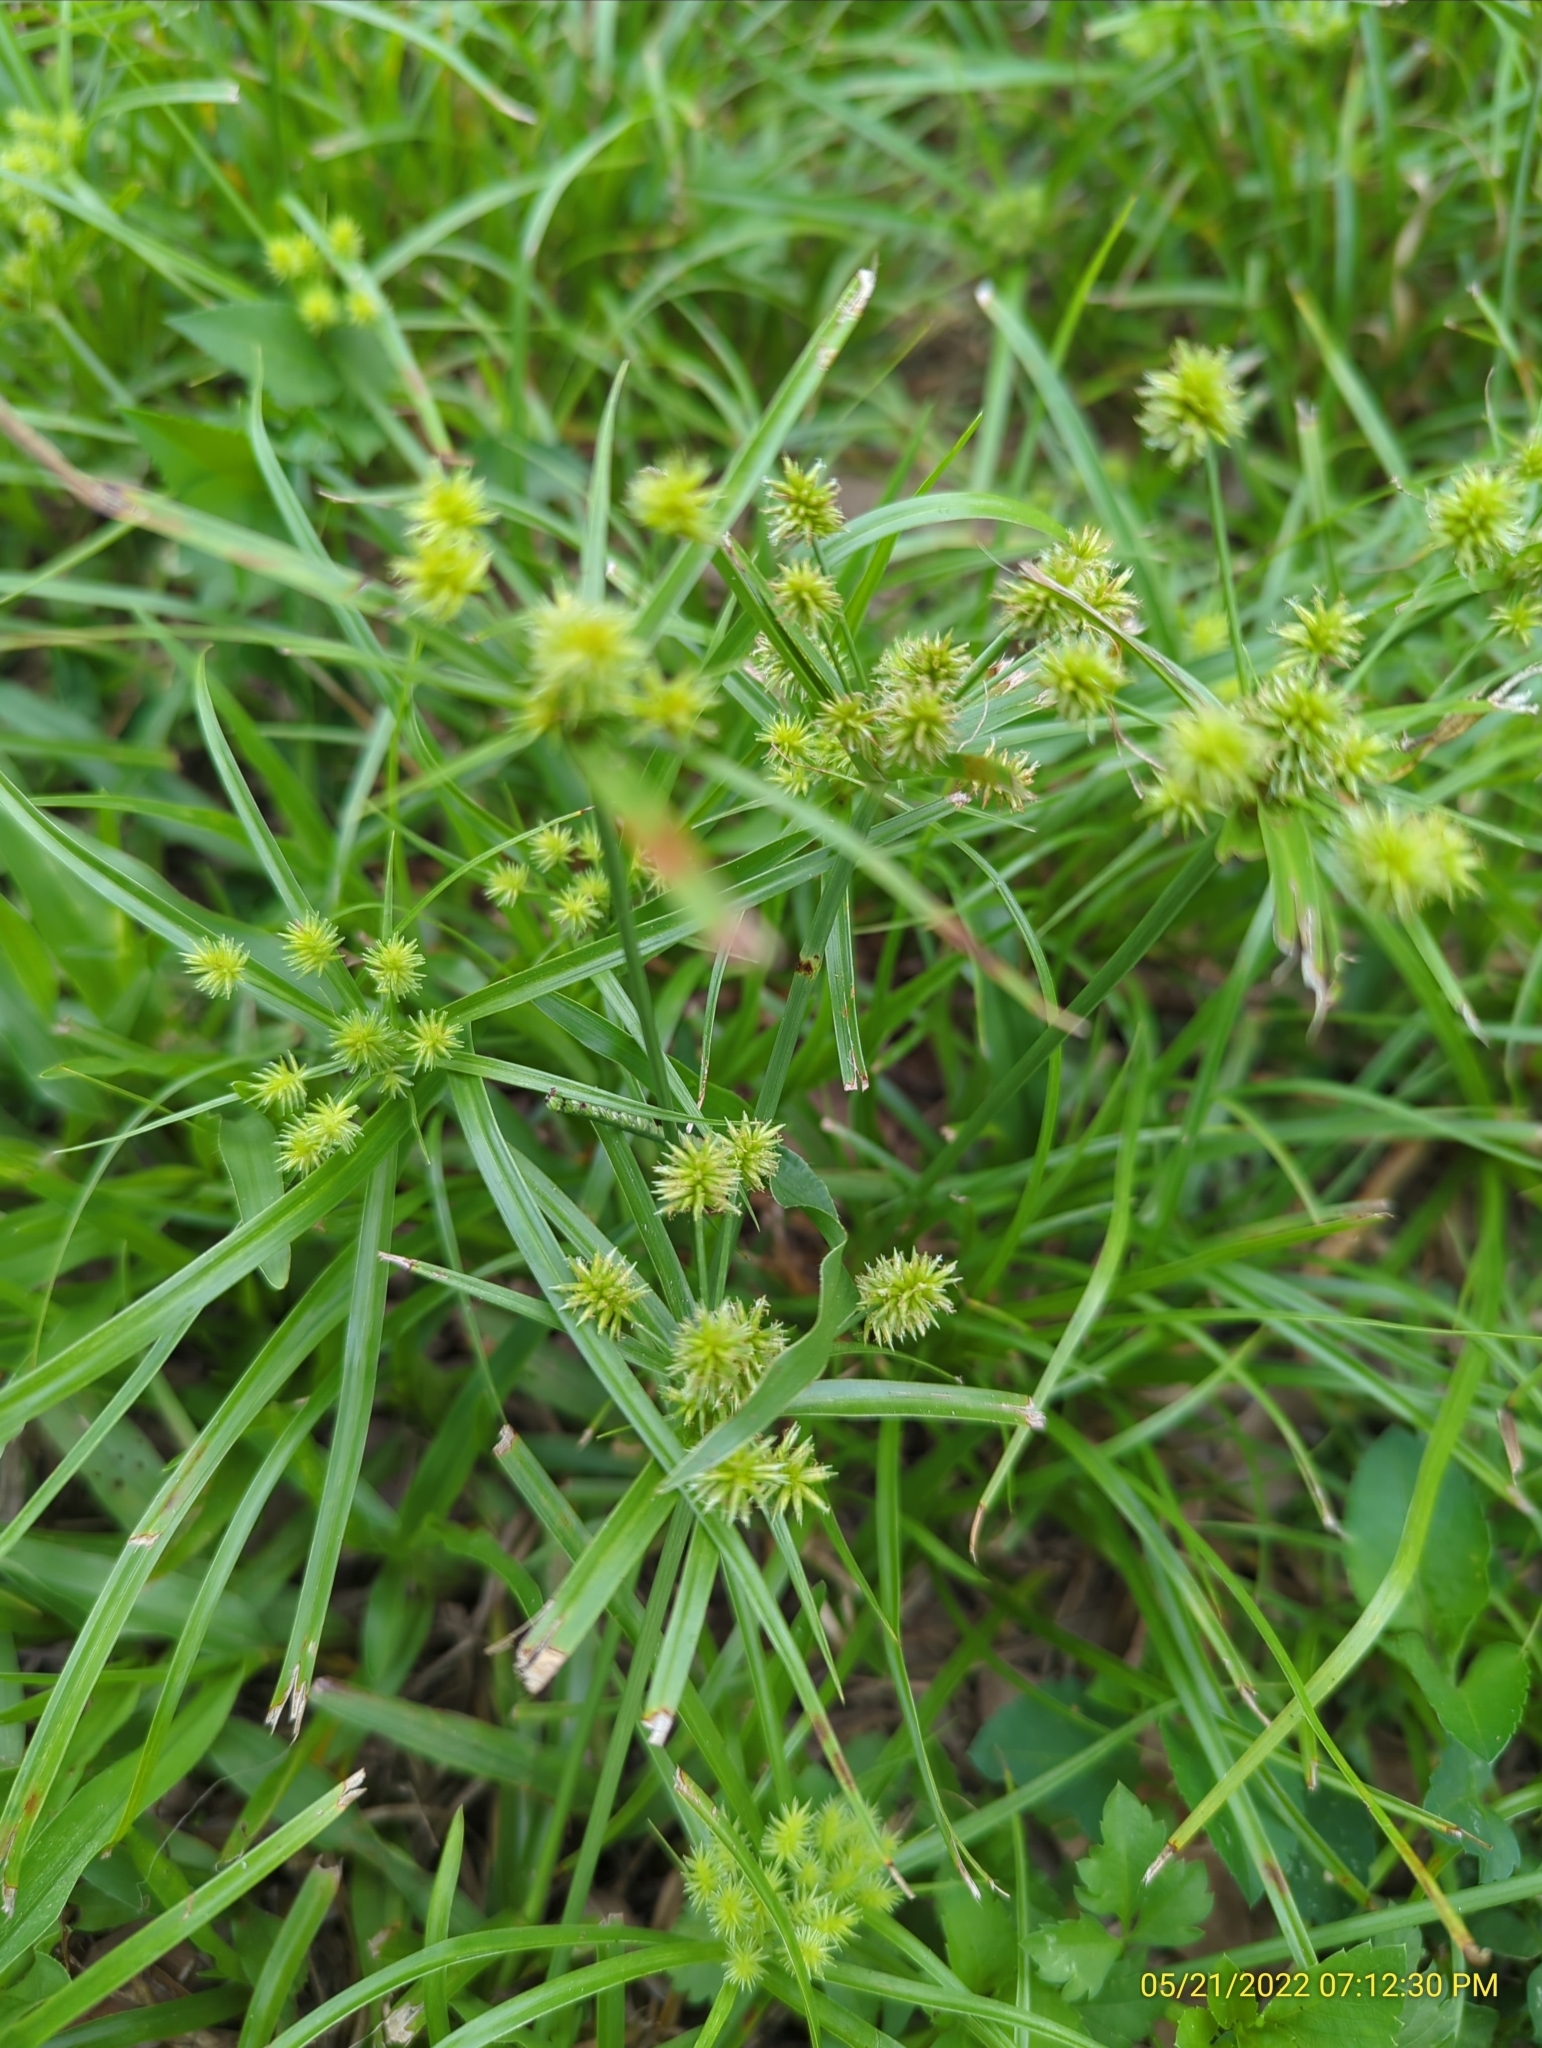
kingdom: Plantae
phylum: Tracheophyta
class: Liliopsida
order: Poales
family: Cyperaceae
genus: Cyperus
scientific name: Cyperus croceus
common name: Baldwin's flatsedge
